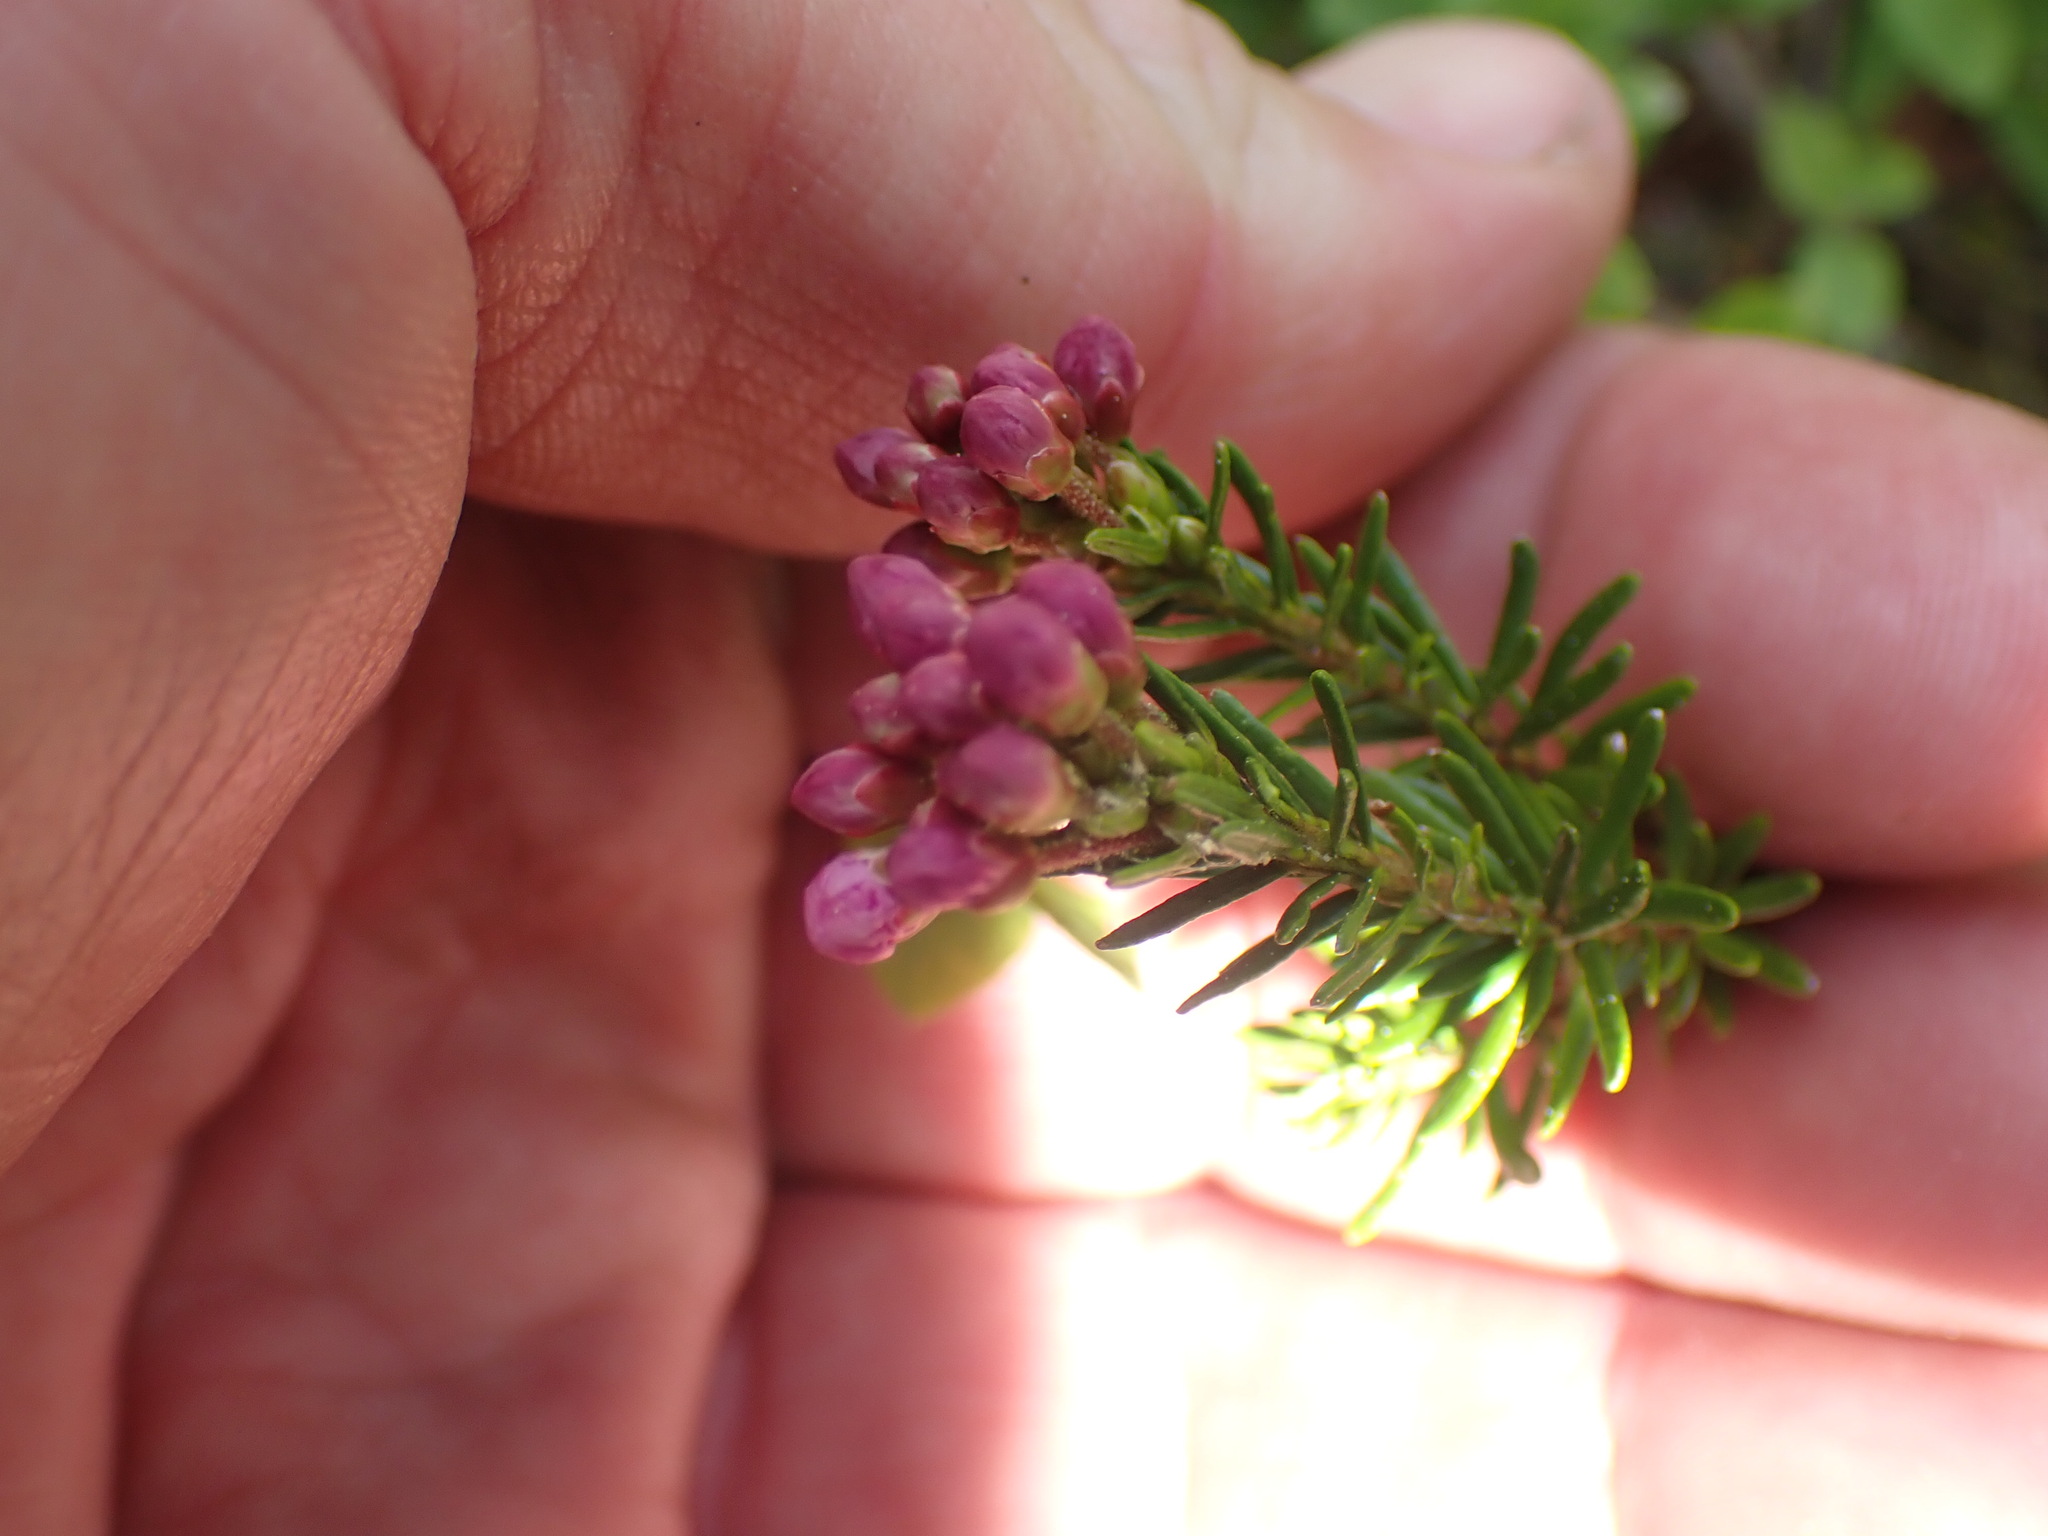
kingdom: Plantae
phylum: Tracheophyta
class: Magnoliopsida
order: Ericales
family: Ericaceae
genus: Phyllodoce
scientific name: Phyllodoce empetriformis
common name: Pink mountain heather
